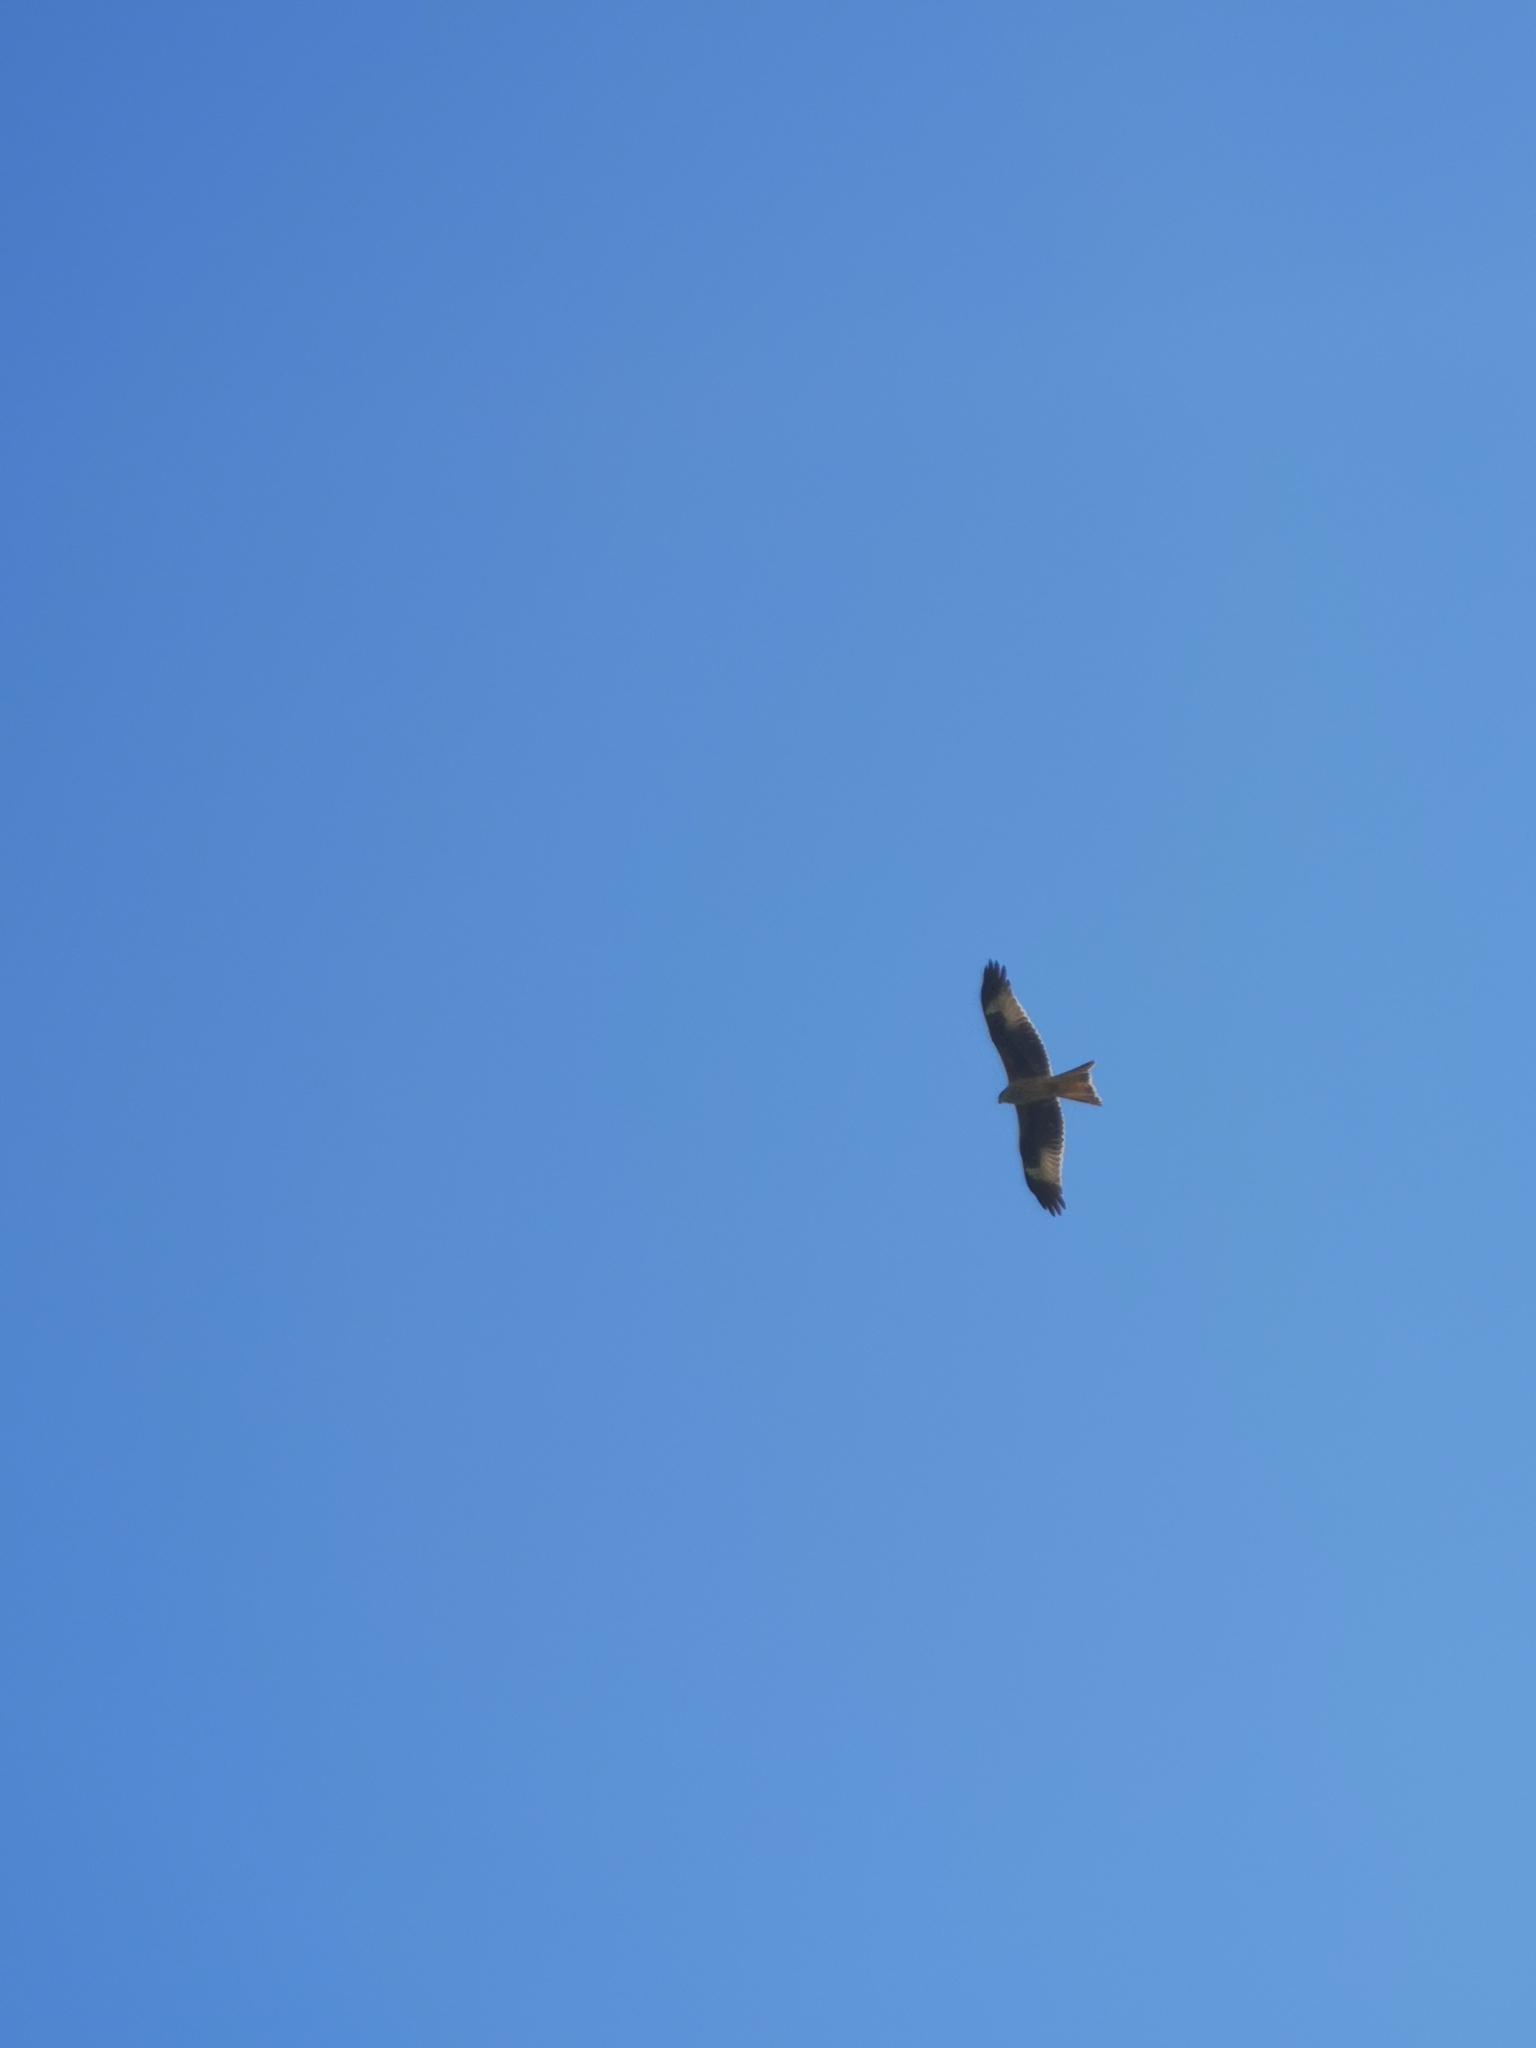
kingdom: Animalia
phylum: Chordata
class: Aves
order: Accipitriformes
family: Accipitridae
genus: Milvus
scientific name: Milvus milvus
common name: Red kite
